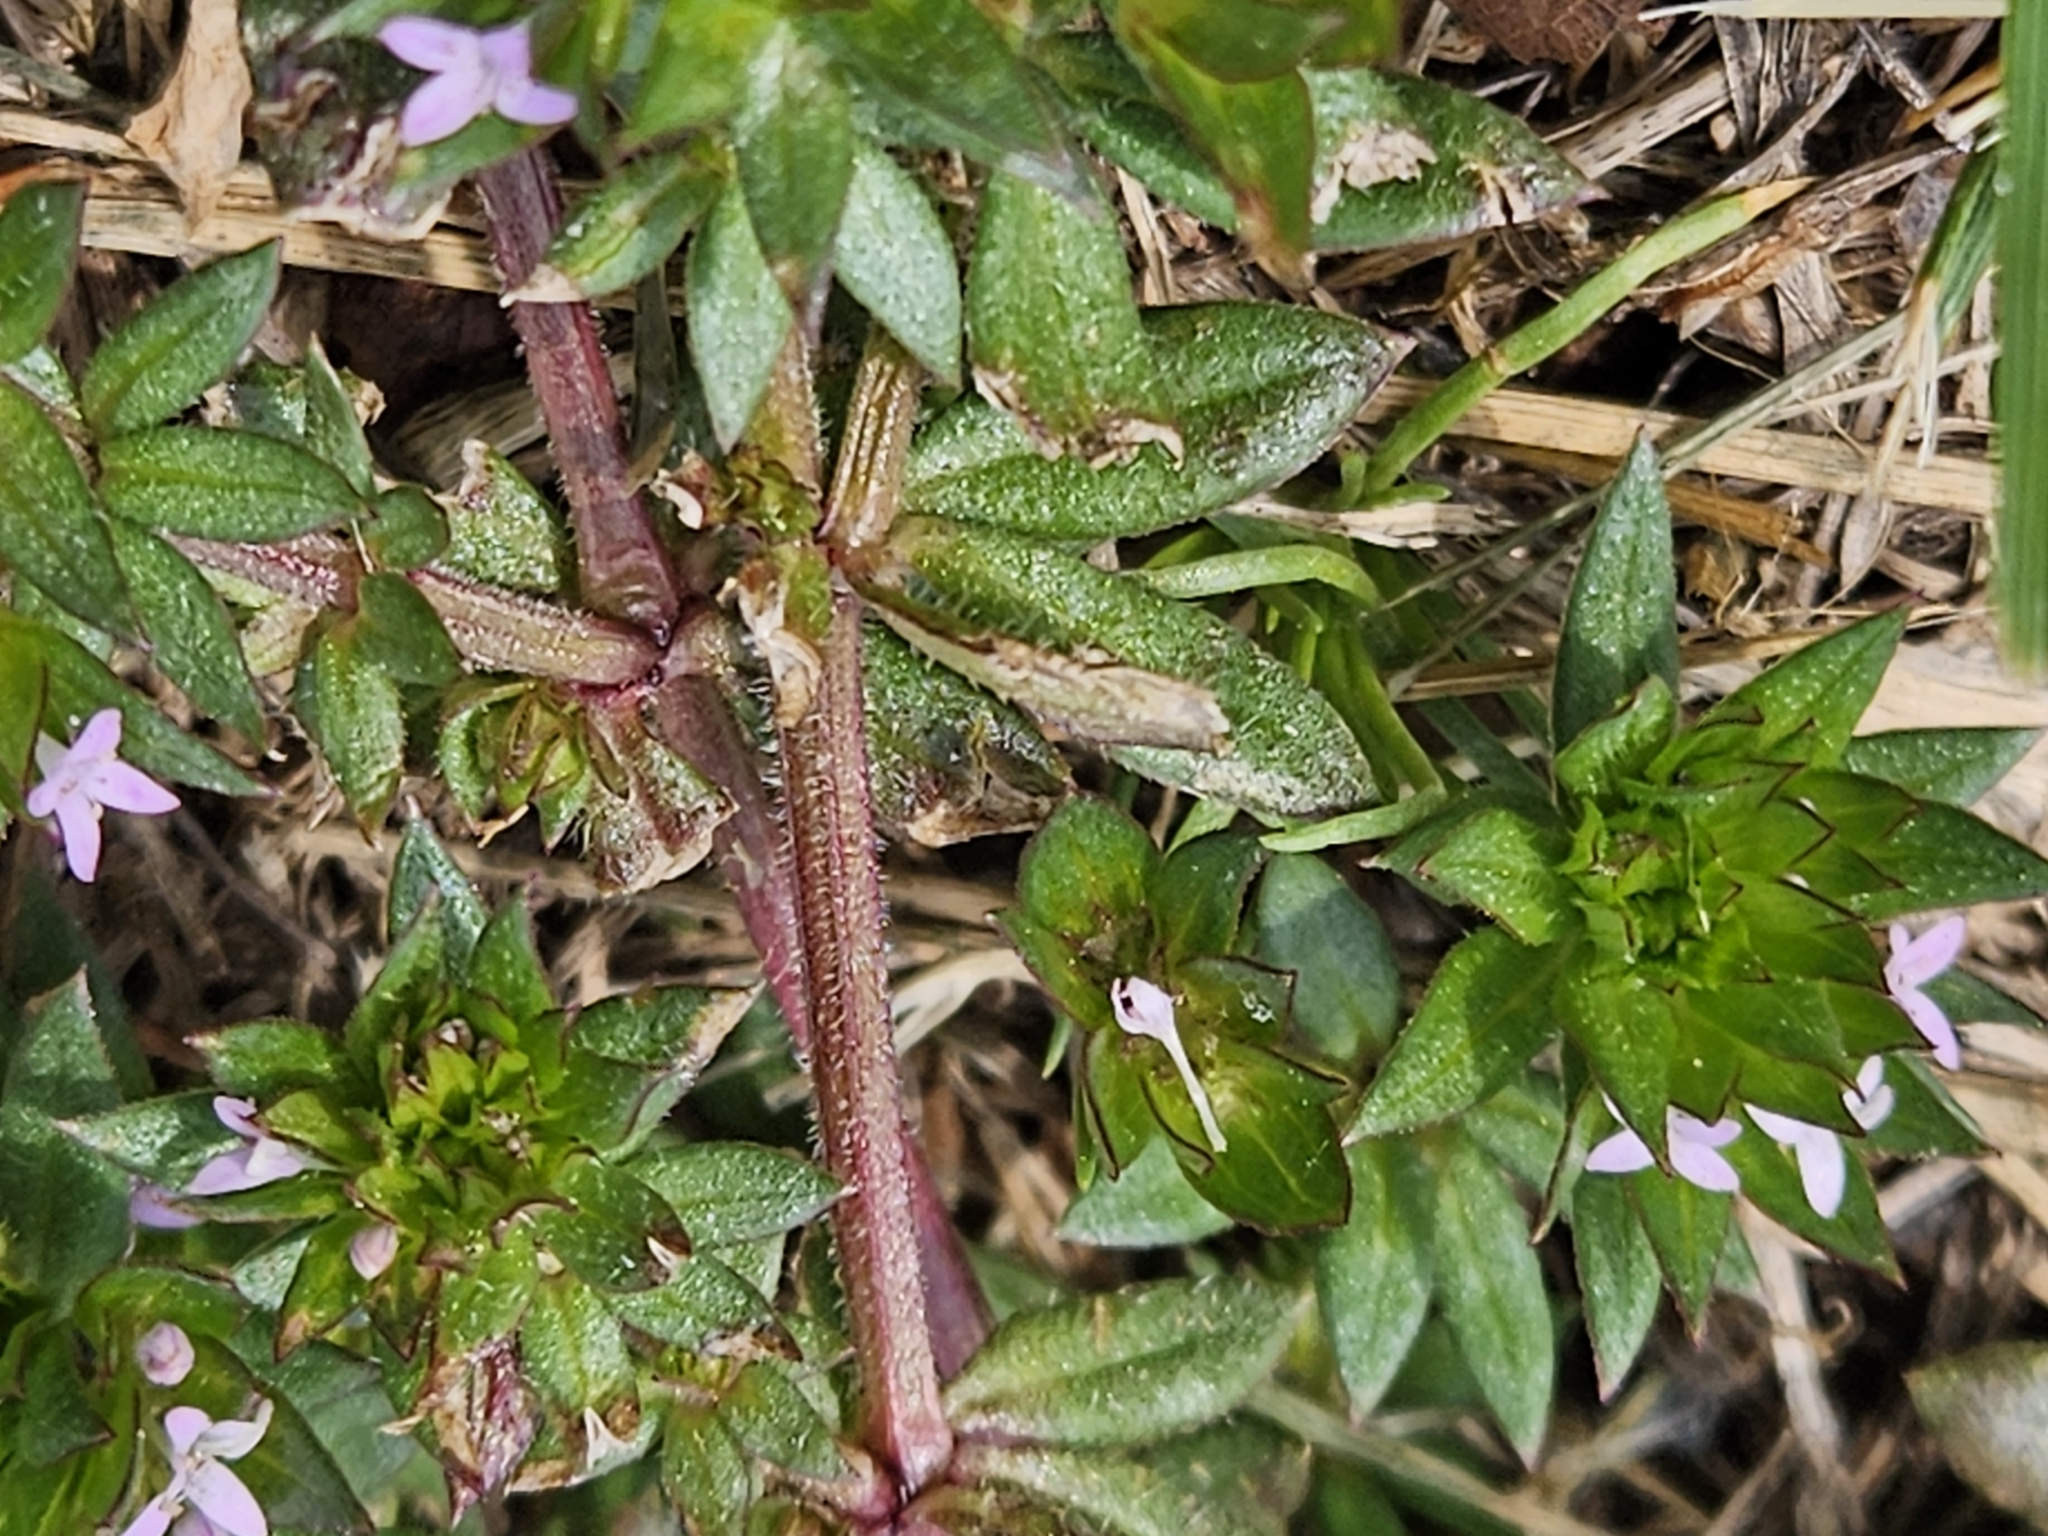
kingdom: Plantae
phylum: Tracheophyta
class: Magnoliopsida
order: Gentianales
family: Rubiaceae
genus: Sherardia
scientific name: Sherardia arvensis
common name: Field madder
